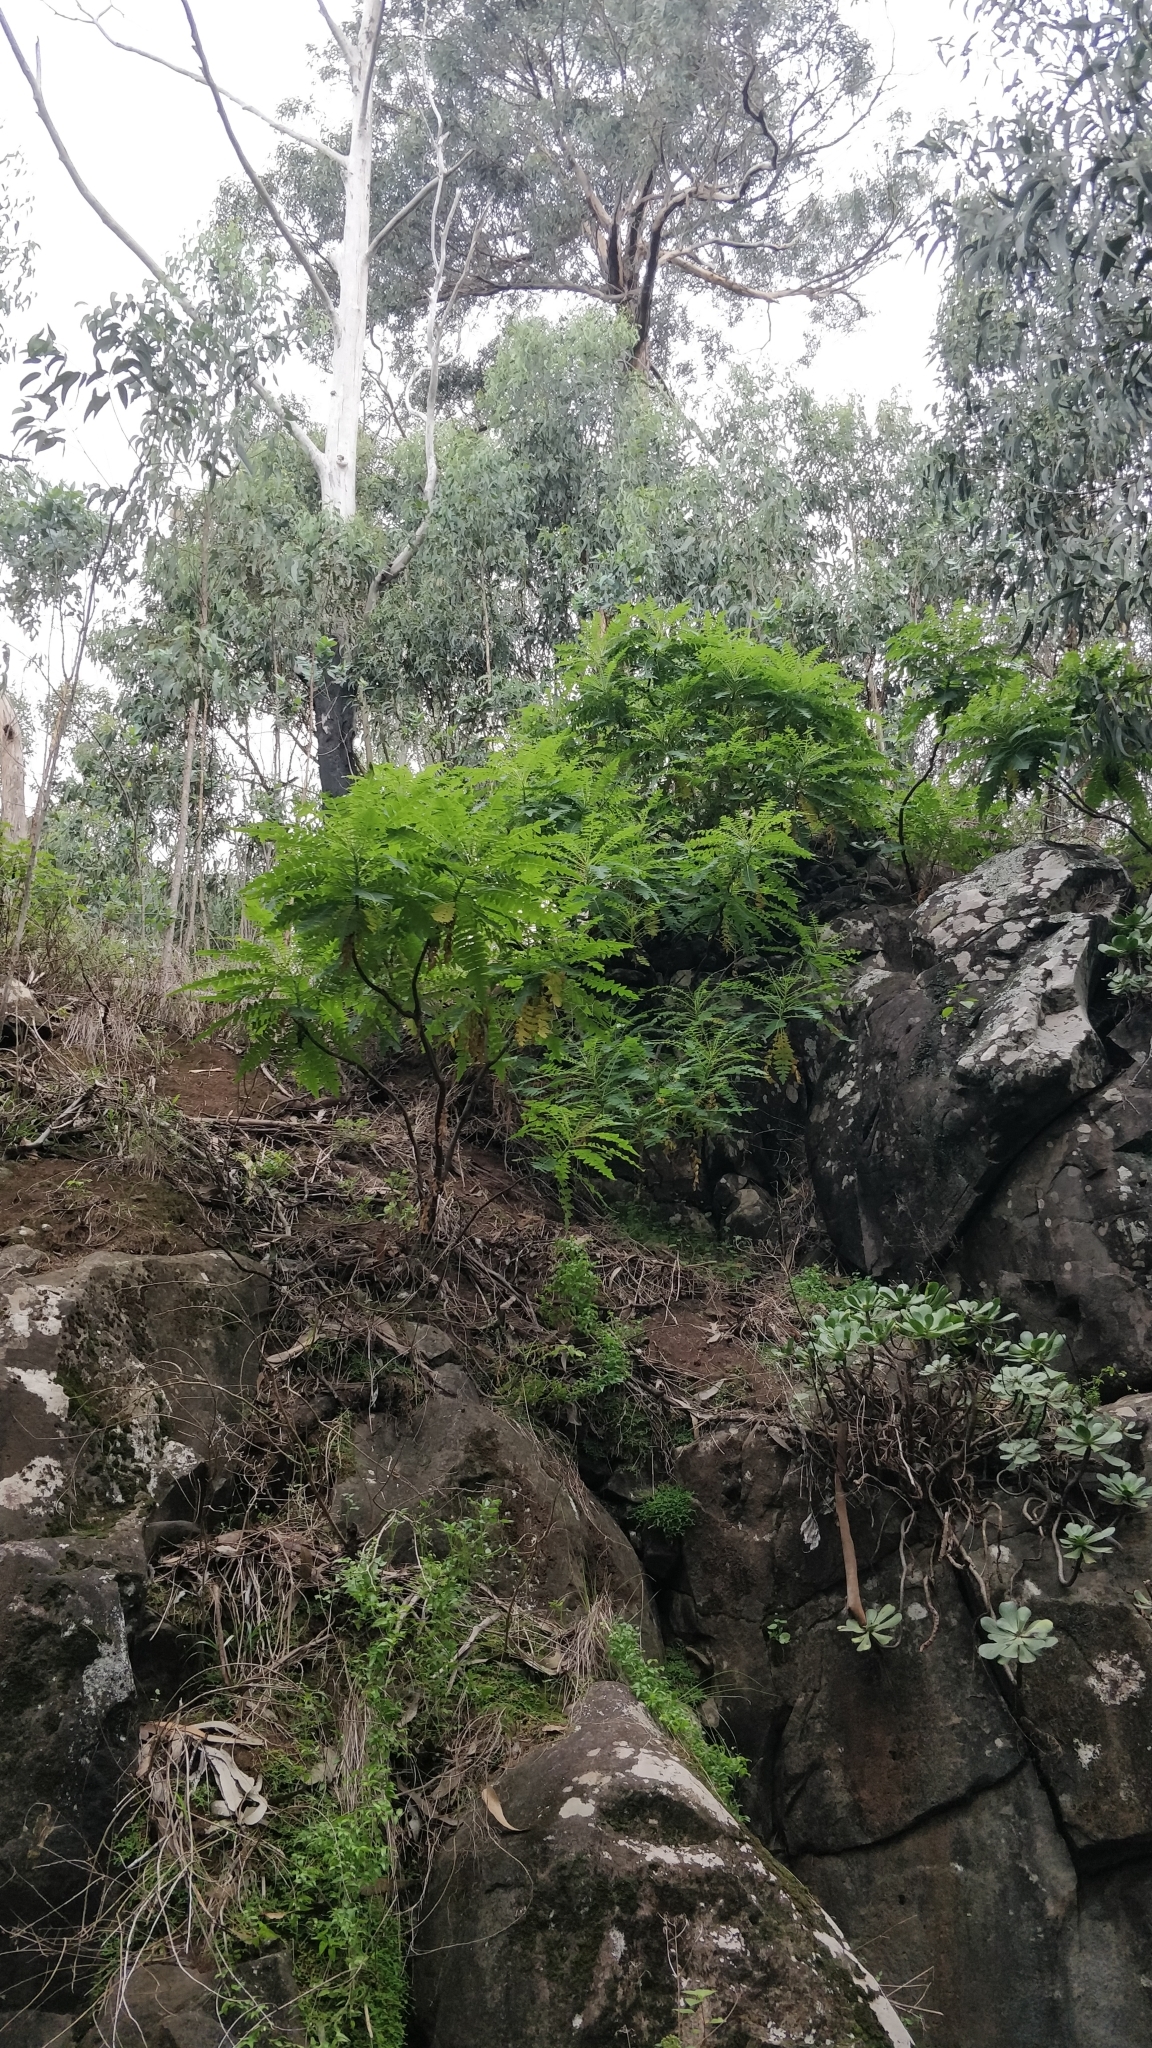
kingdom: Plantae
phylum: Tracheophyta
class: Magnoliopsida
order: Asterales
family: Asteraceae
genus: Sonchus
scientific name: Sonchus pinnatus
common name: Wing-leaved sow-thistle
